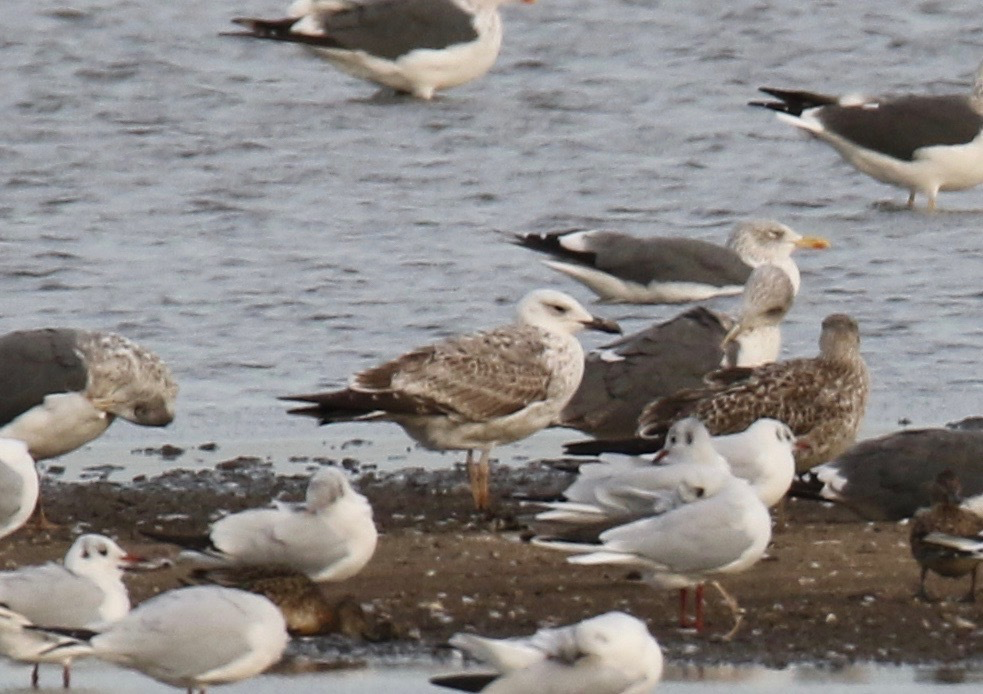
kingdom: Animalia
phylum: Chordata
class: Aves
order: Charadriiformes
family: Laridae
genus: Larus
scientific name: Larus cachinnans
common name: Caspian gull
